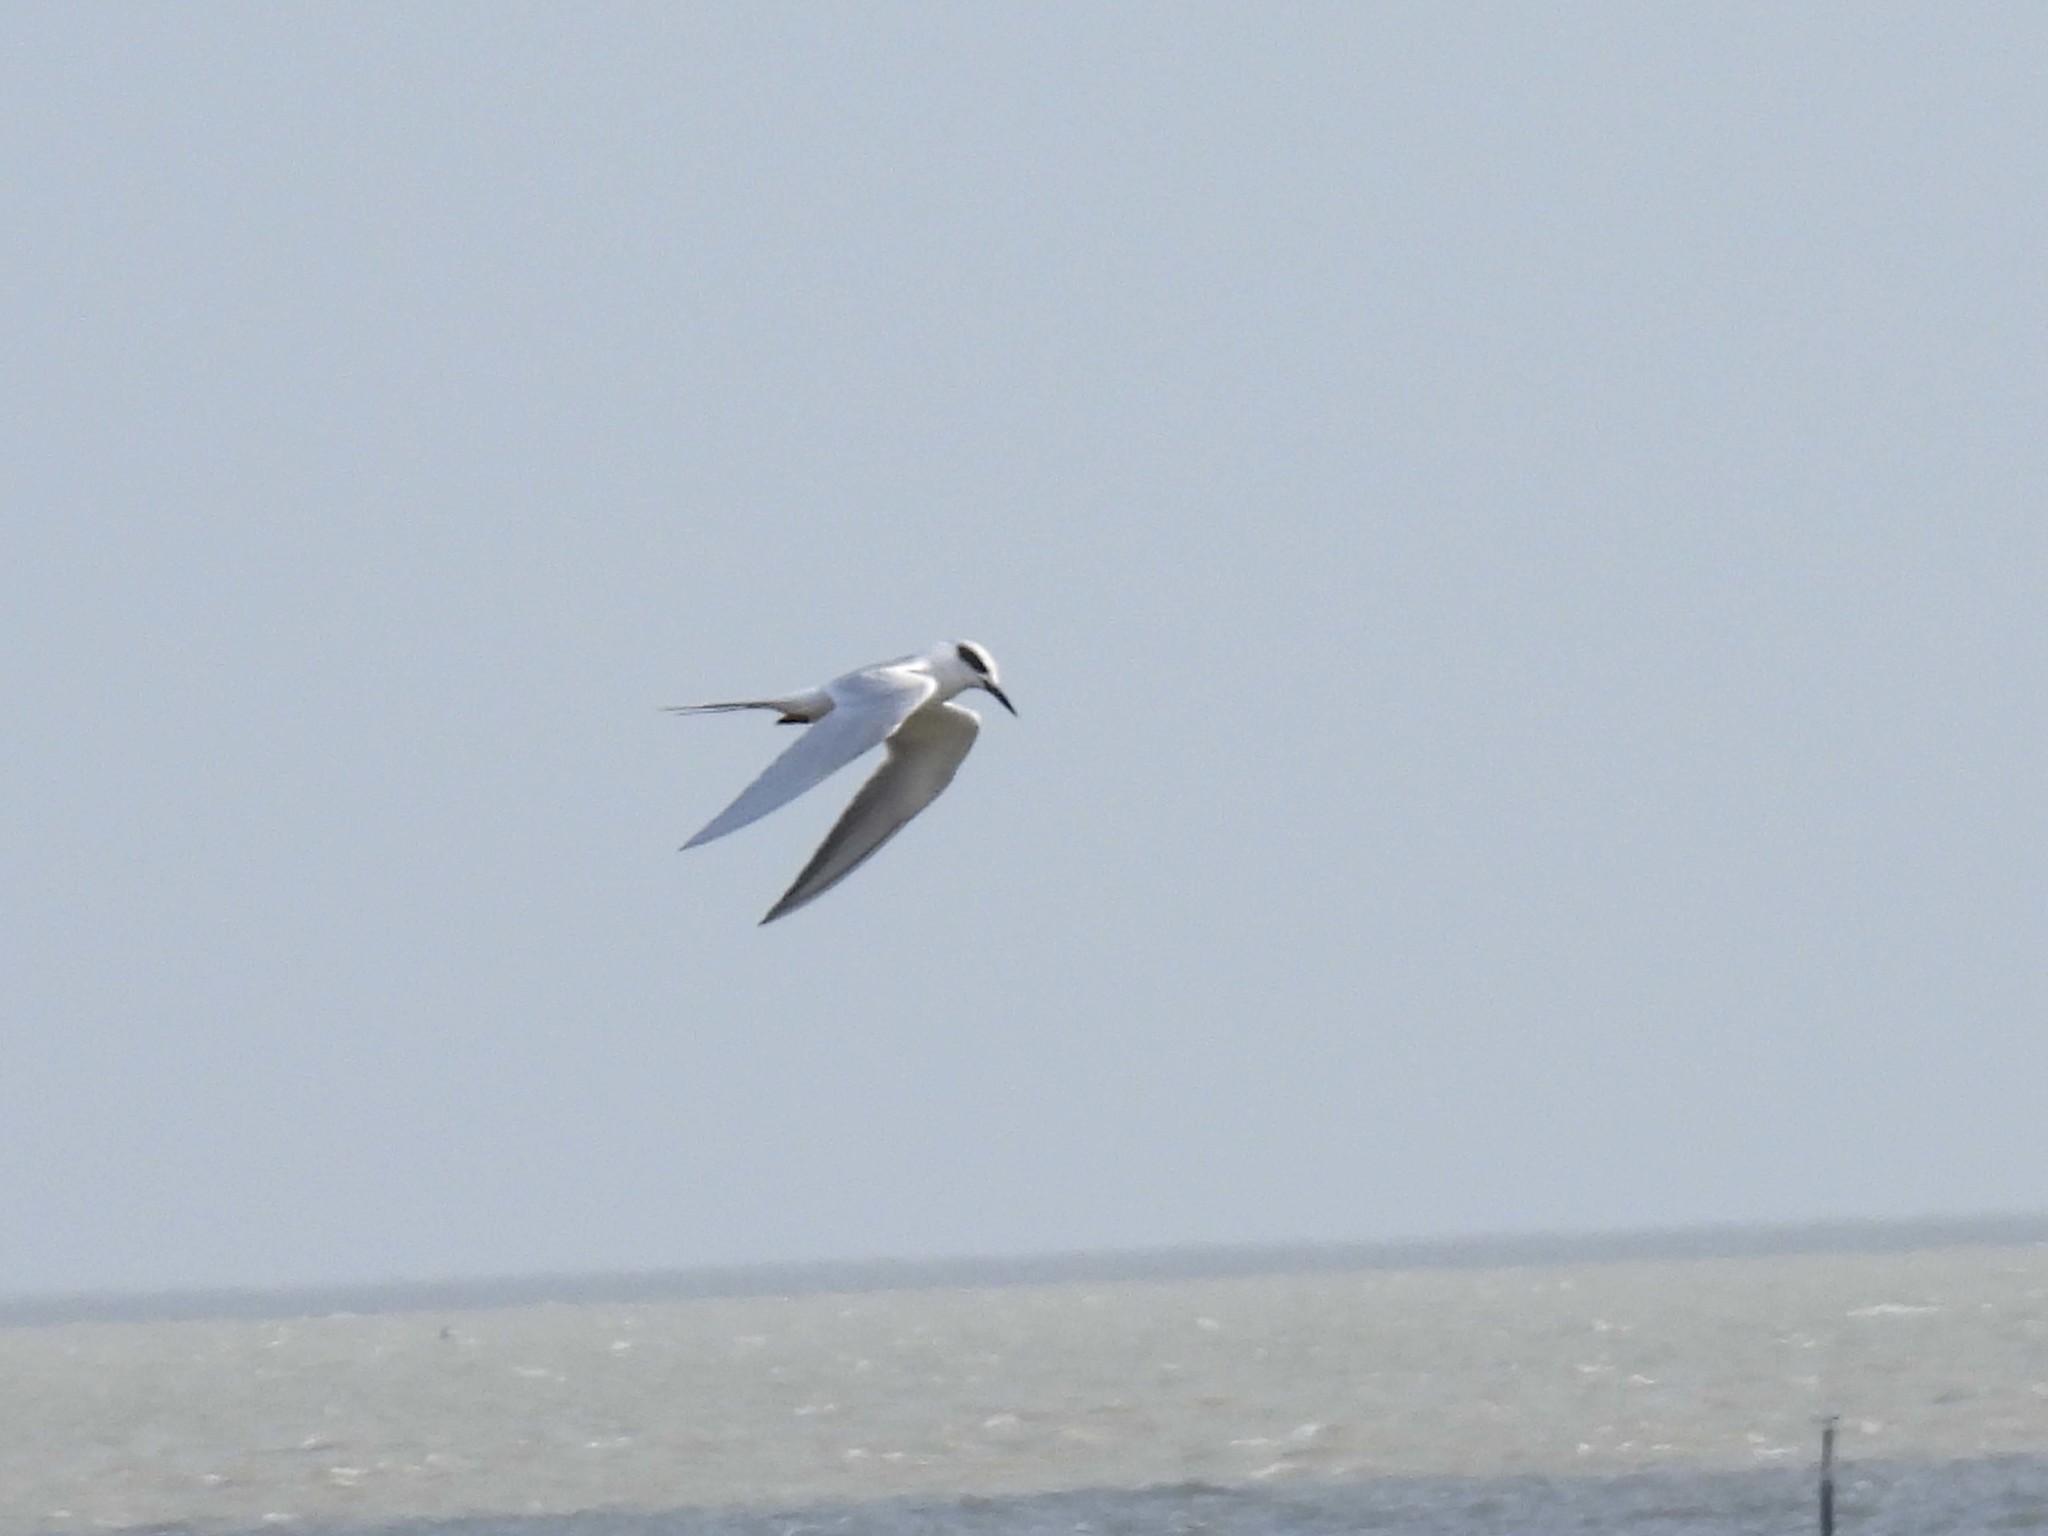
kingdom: Animalia
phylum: Chordata
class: Aves
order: Charadriiformes
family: Laridae
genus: Sterna
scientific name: Sterna forsteri
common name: Forster's tern
